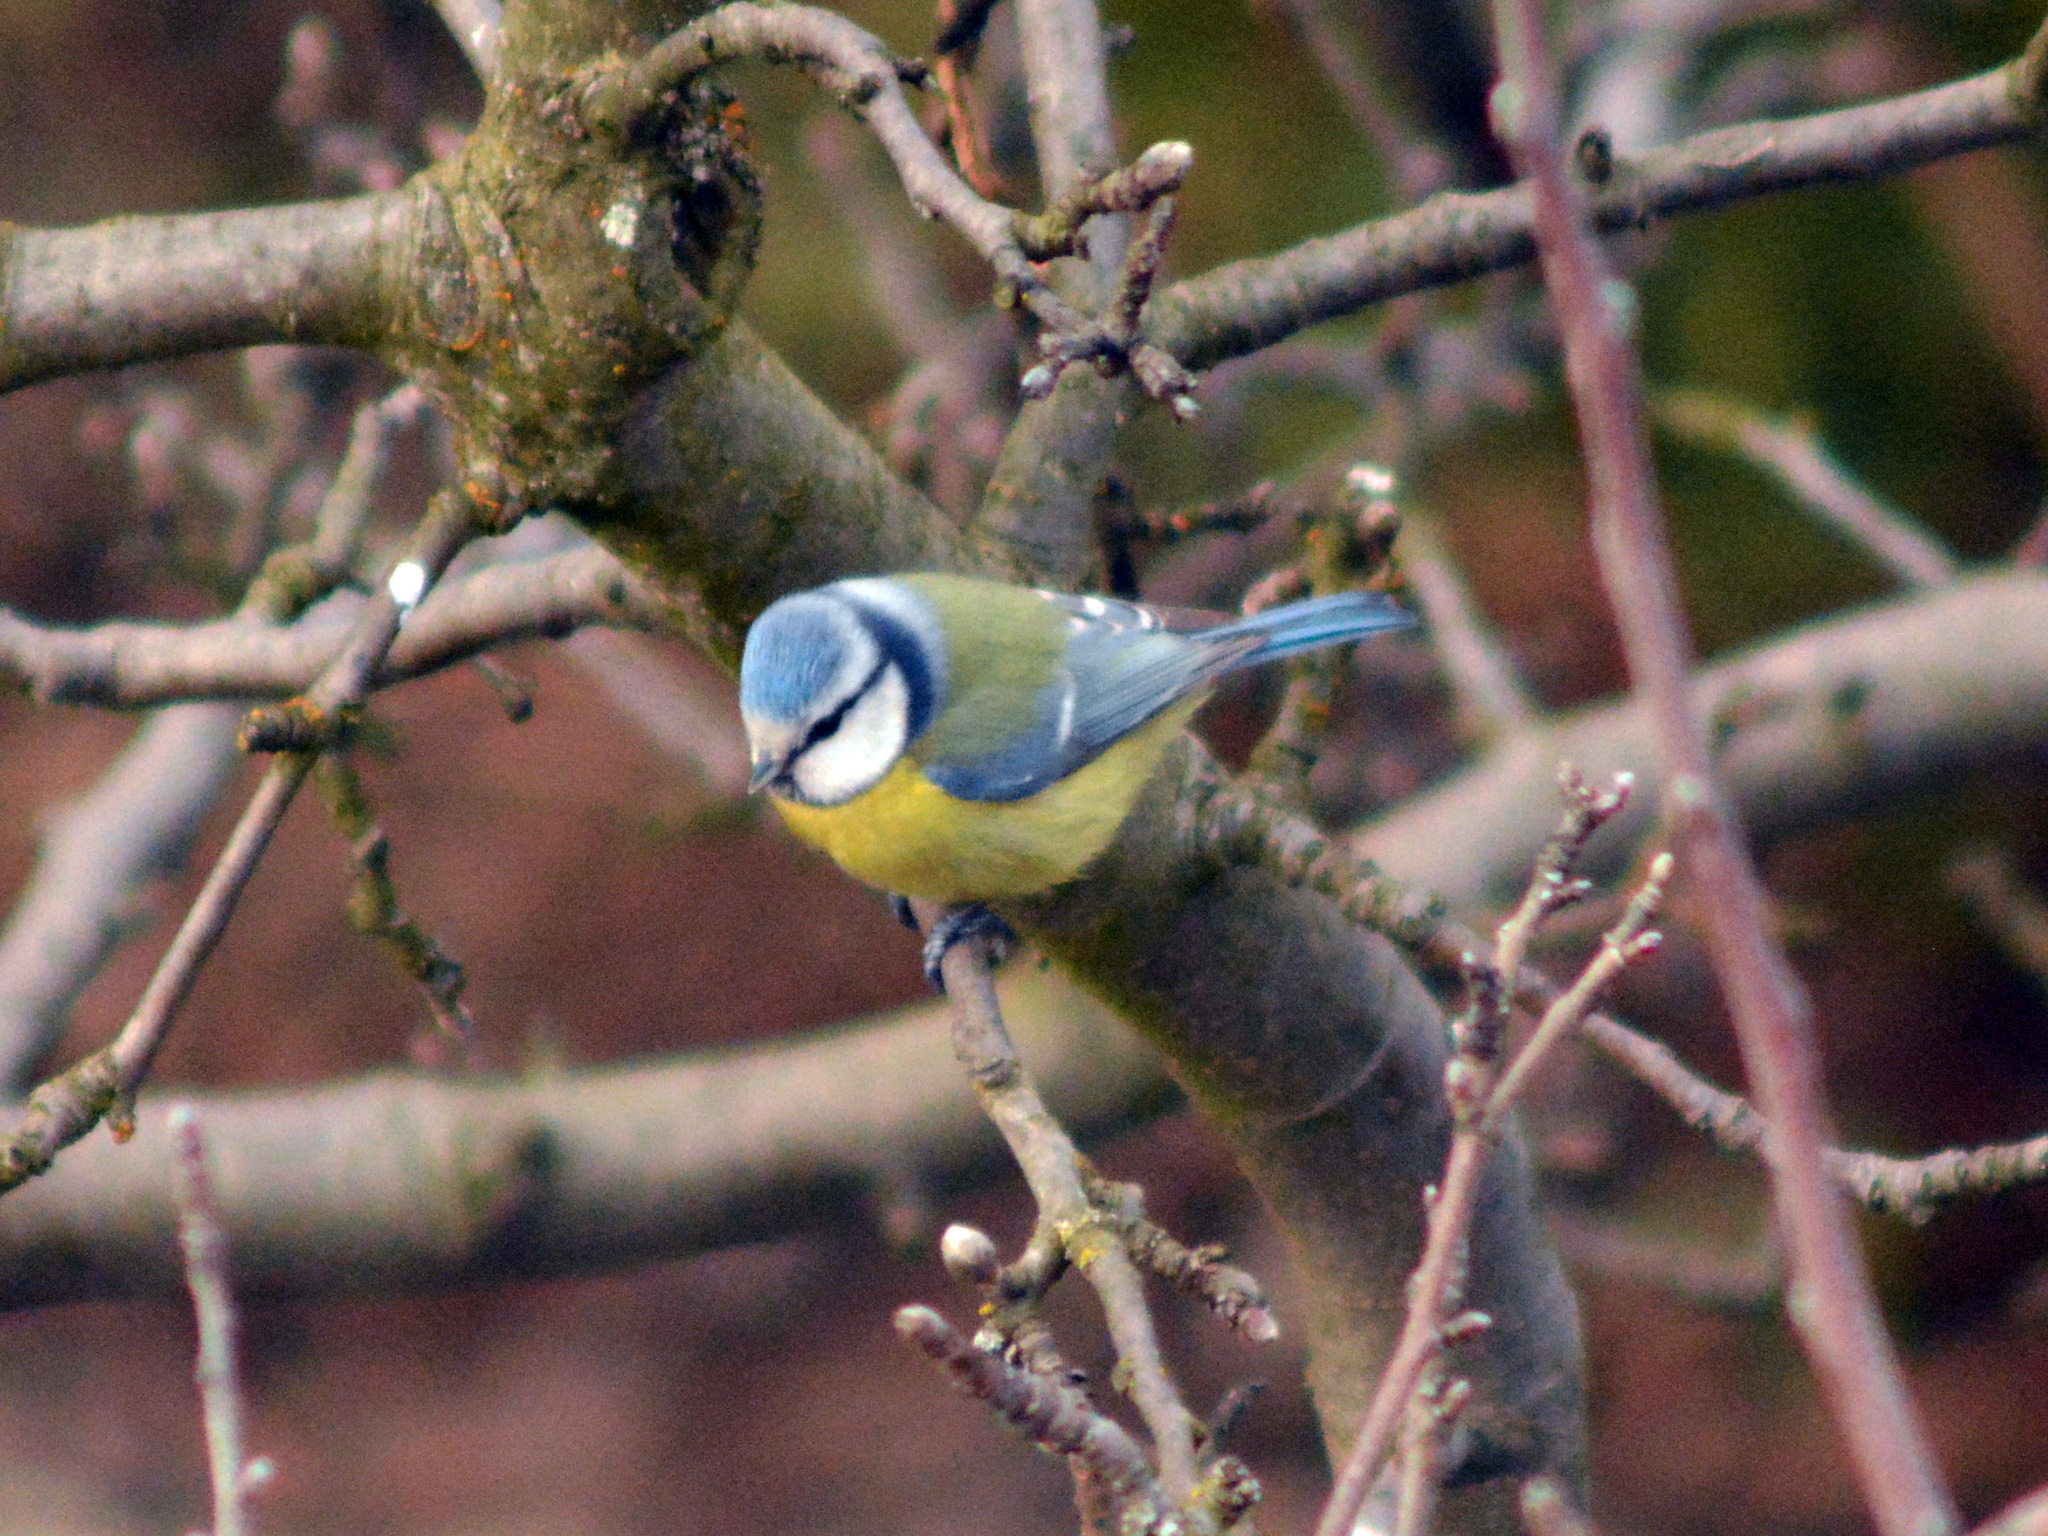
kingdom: Animalia
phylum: Chordata
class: Aves
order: Passeriformes
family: Paridae
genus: Cyanistes
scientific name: Cyanistes caeruleus
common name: Eurasian blue tit
